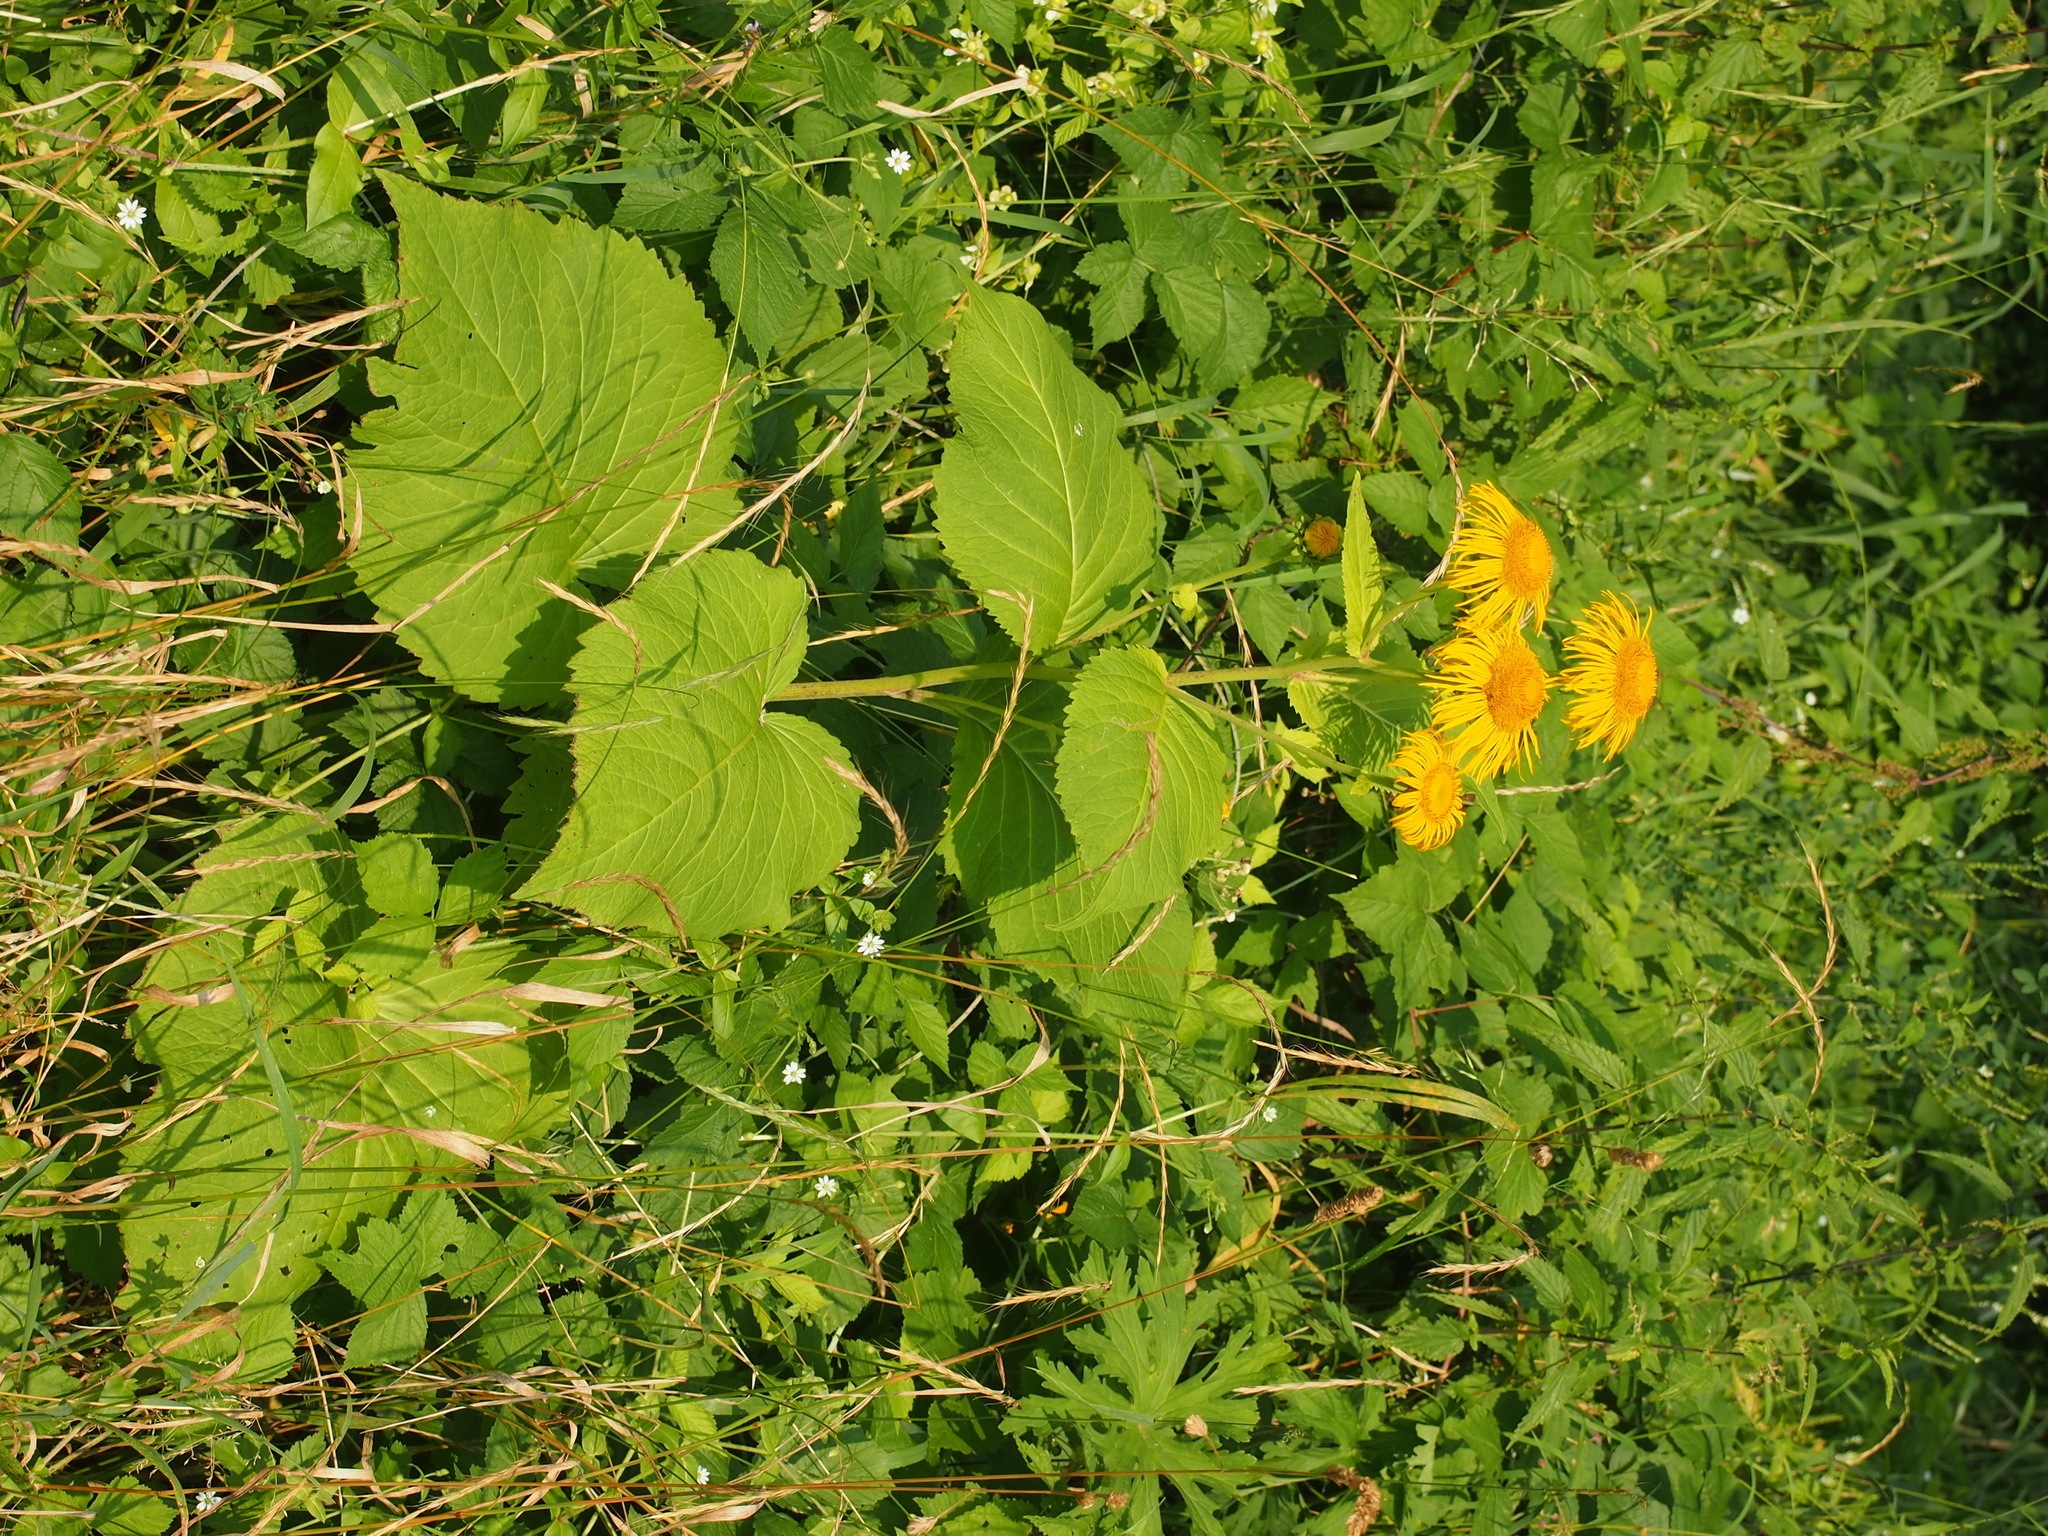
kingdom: Plantae
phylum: Tracheophyta
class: Magnoliopsida
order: Asterales
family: Asteraceae
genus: Telekia
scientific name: Telekia speciosa
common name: Yellow oxeye
